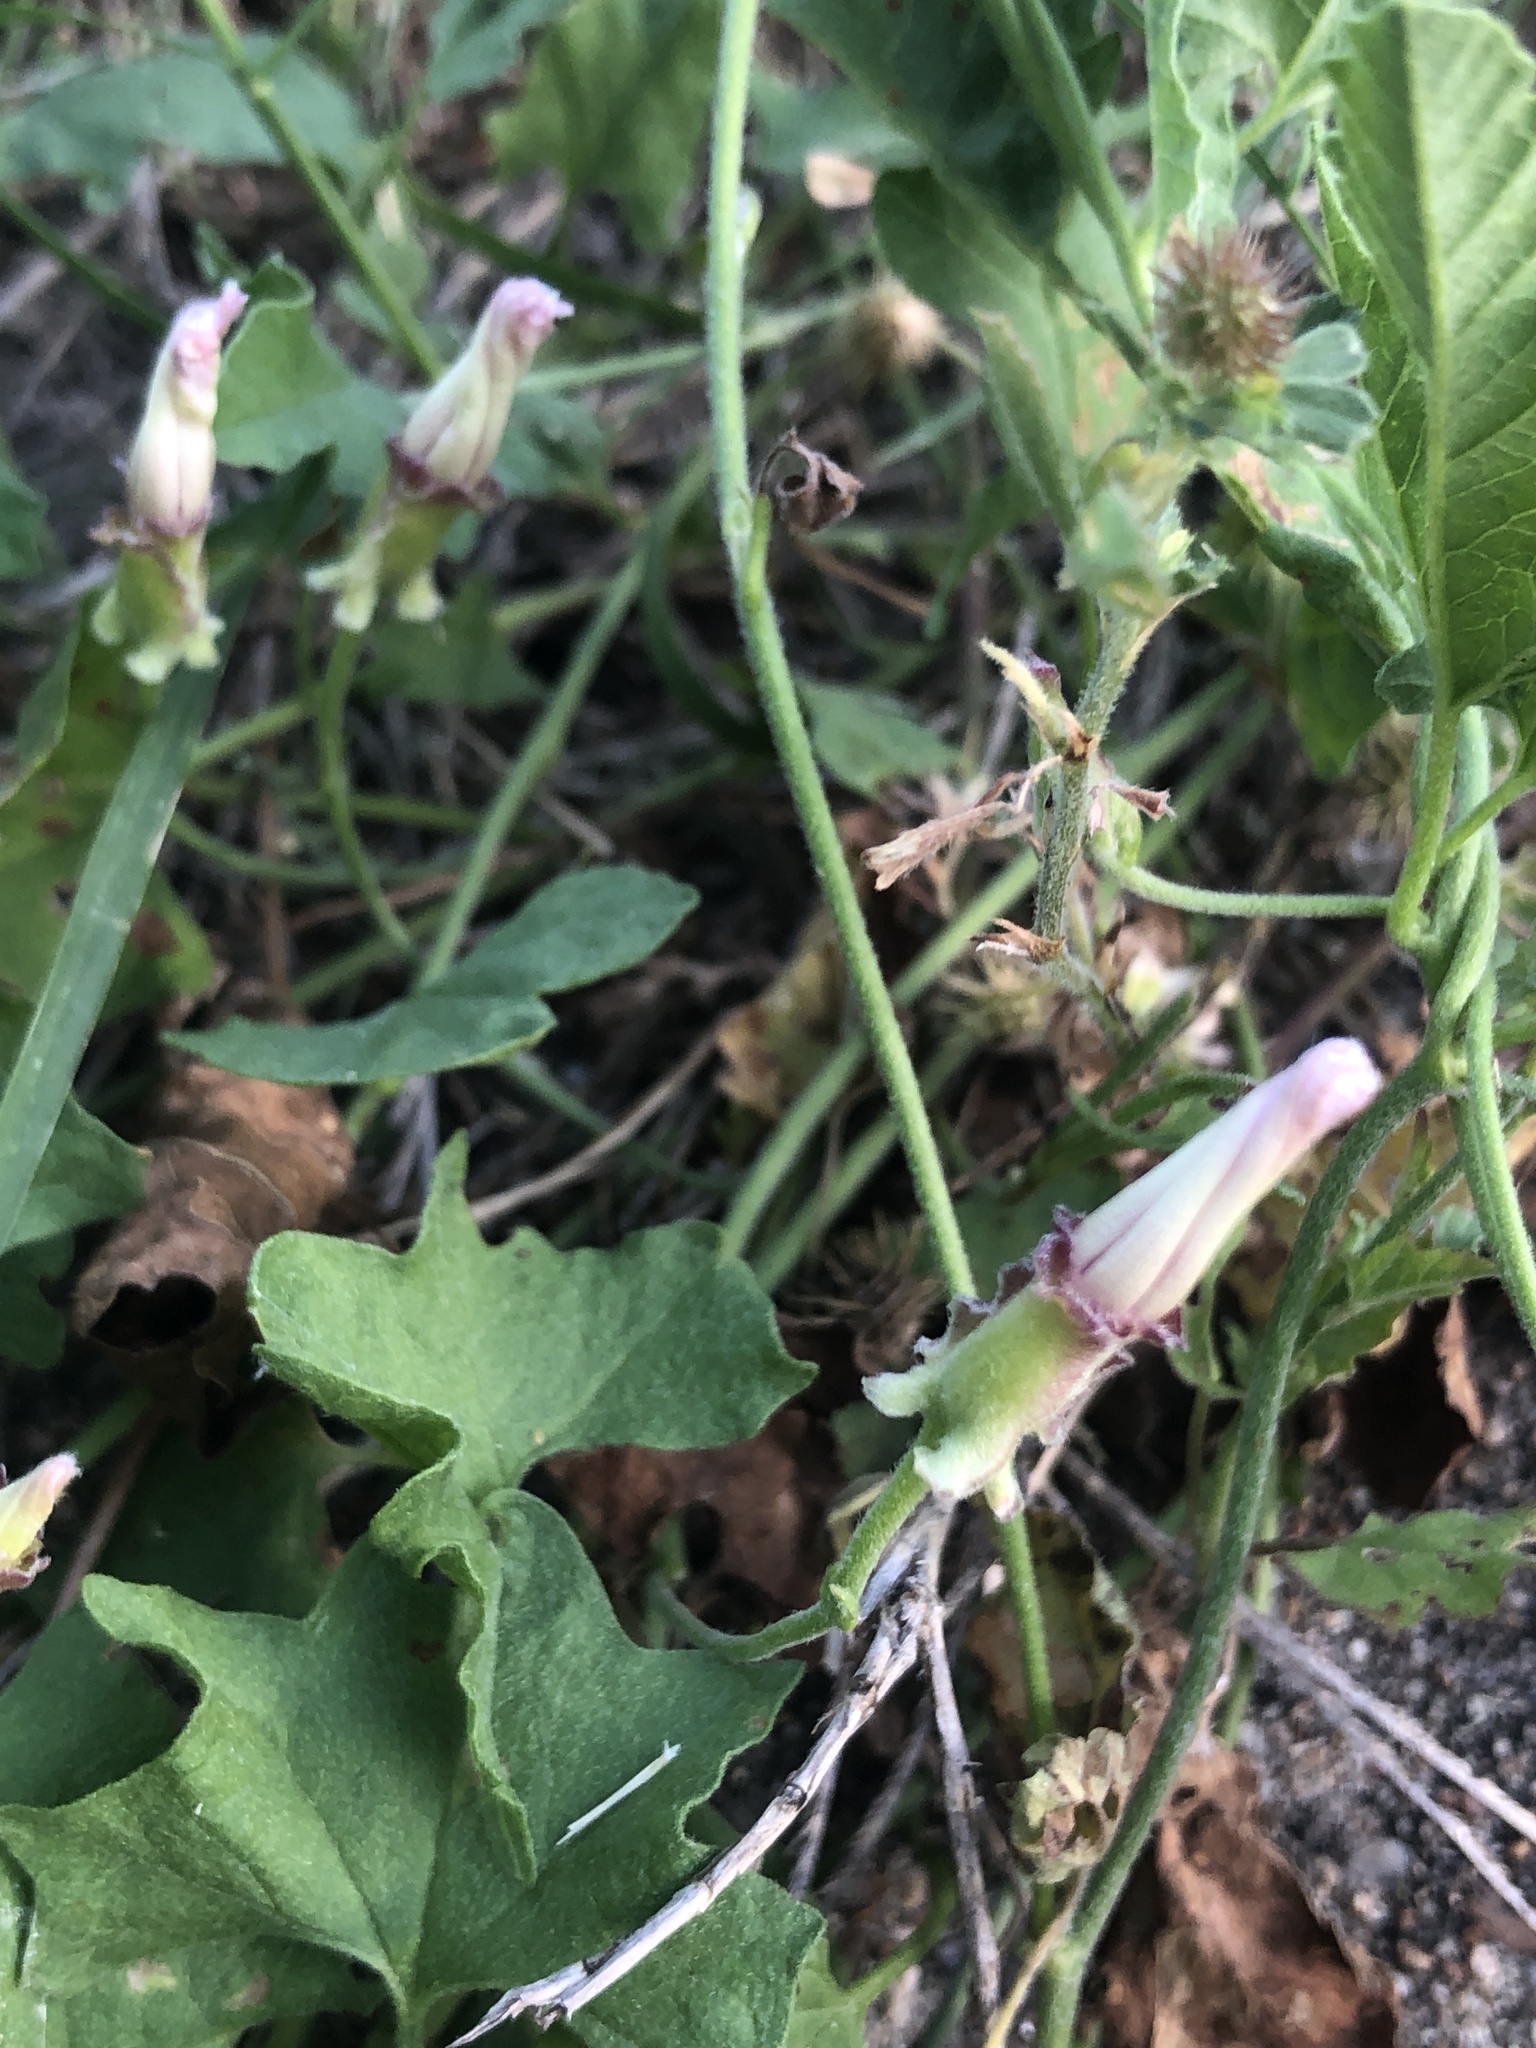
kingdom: Plantae
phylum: Tracheophyta
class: Magnoliopsida
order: Solanales
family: Convolvulaceae
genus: Convolvulus
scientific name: Convolvulus equitans
